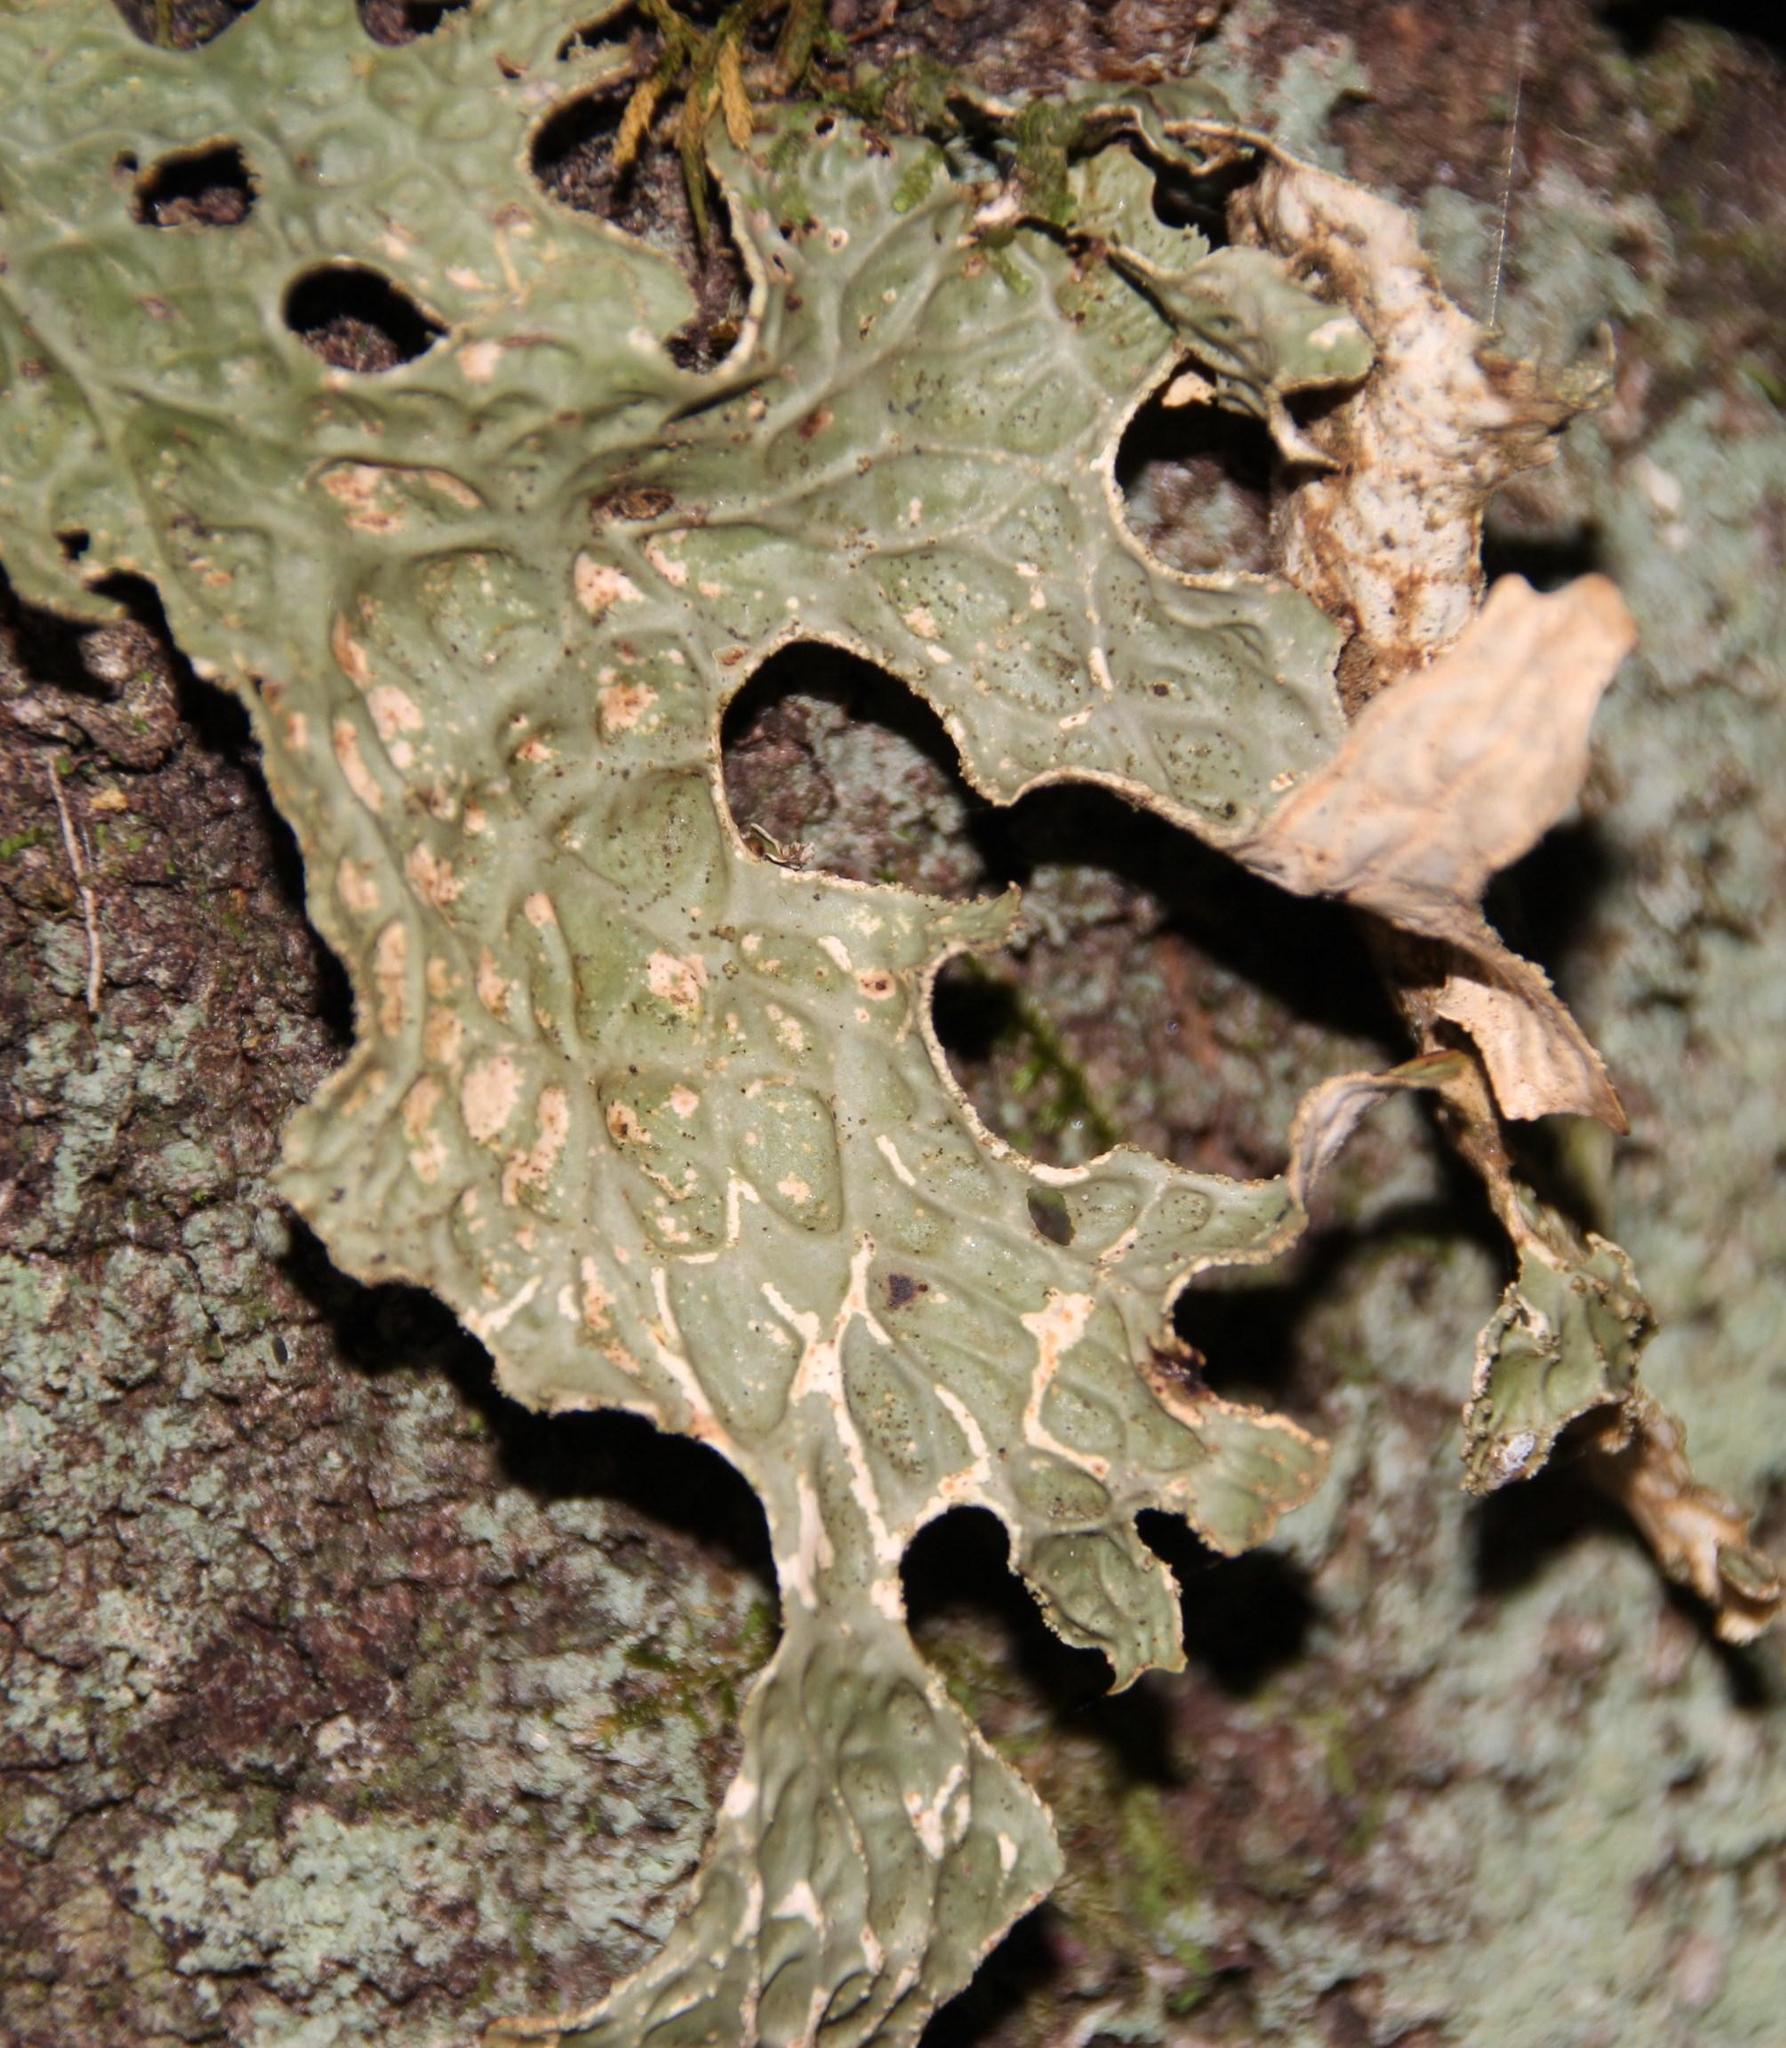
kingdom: Fungi
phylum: Ascomycota
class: Lecanoromycetes
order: Peltigerales
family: Lobariaceae
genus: Lobaria
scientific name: Lobaria pulmonaria
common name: Lungwort
